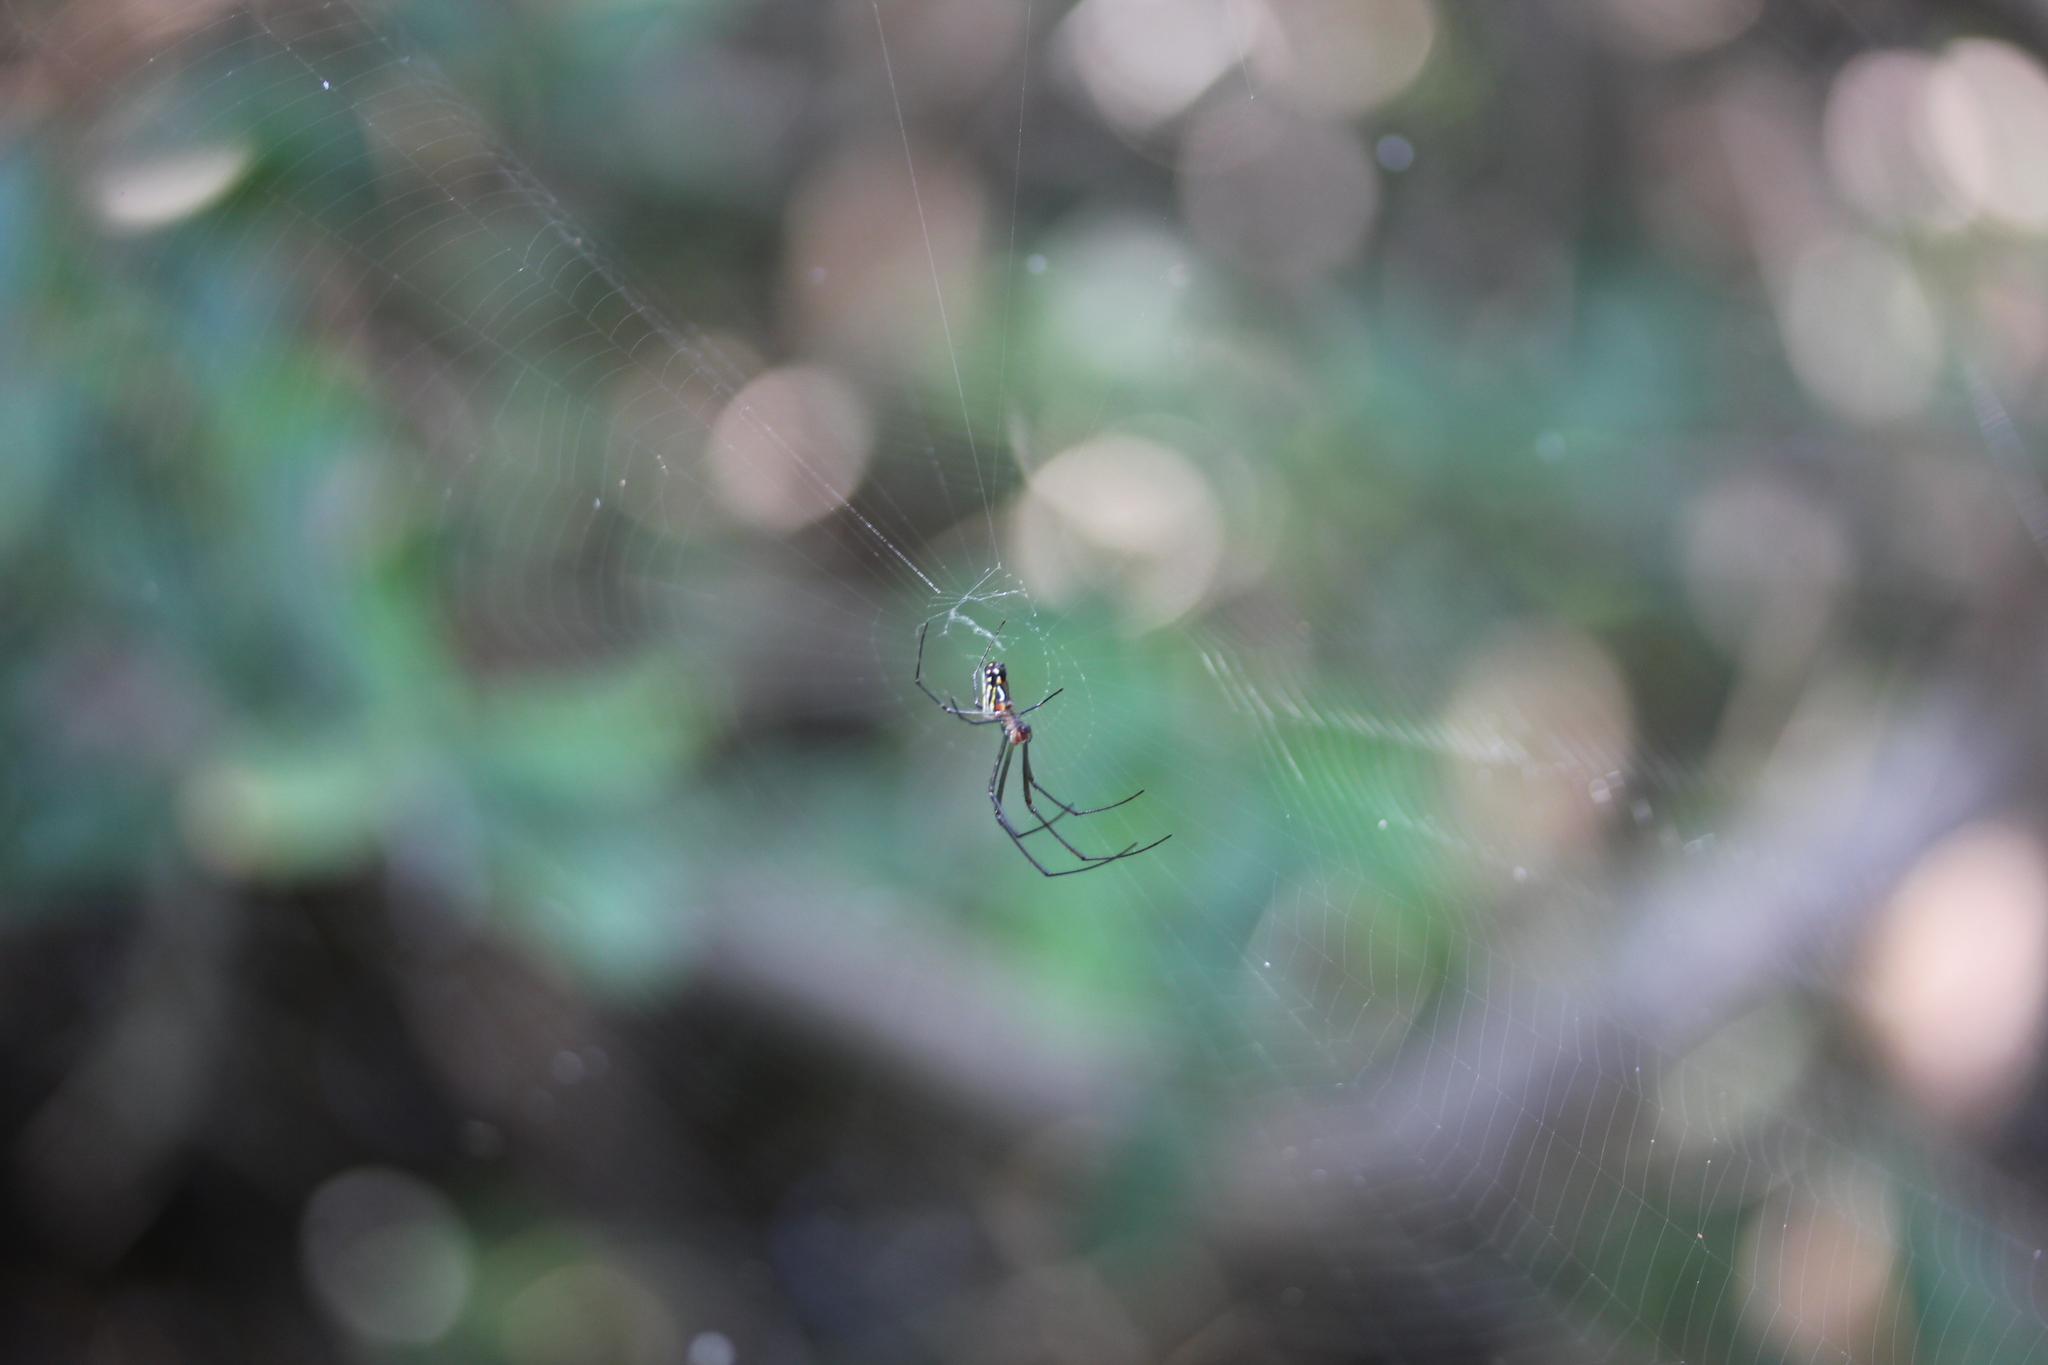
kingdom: Animalia
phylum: Arthropoda
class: Arachnida
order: Araneae
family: Tetragnathidae
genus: Leucauge
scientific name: Leucauge argyra
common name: Longjawed orb weavers
